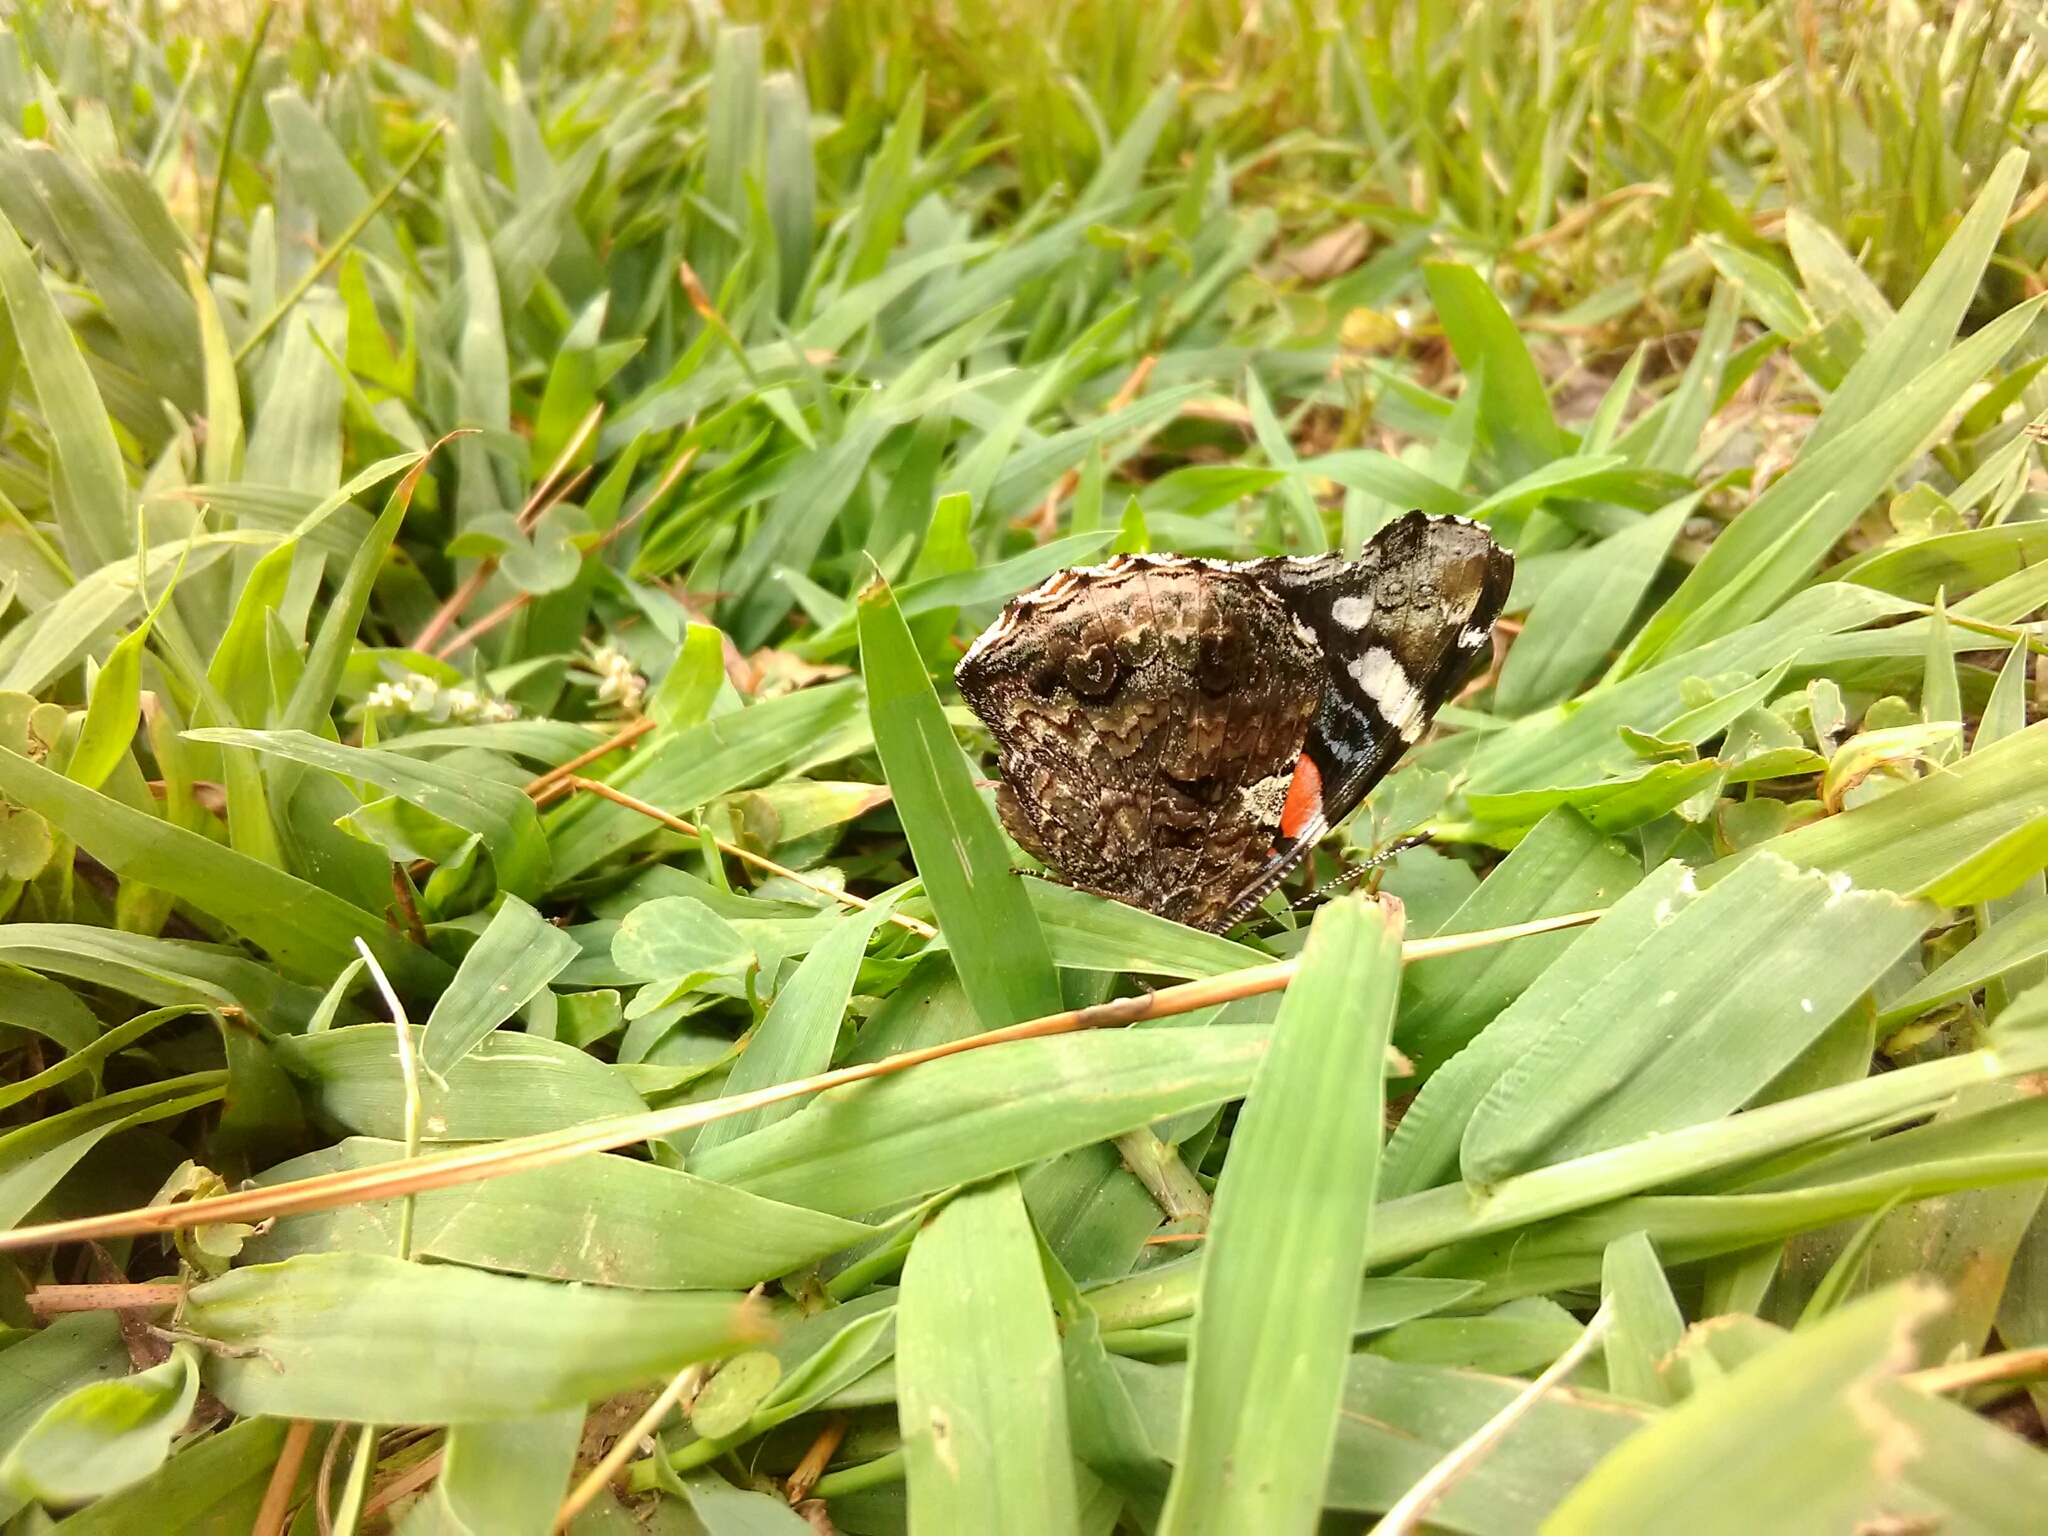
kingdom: Animalia
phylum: Arthropoda
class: Insecta
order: Lepidoptera
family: Nymphalidae
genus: Vanessa
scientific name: Vanessa atalanta
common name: Red admiral
